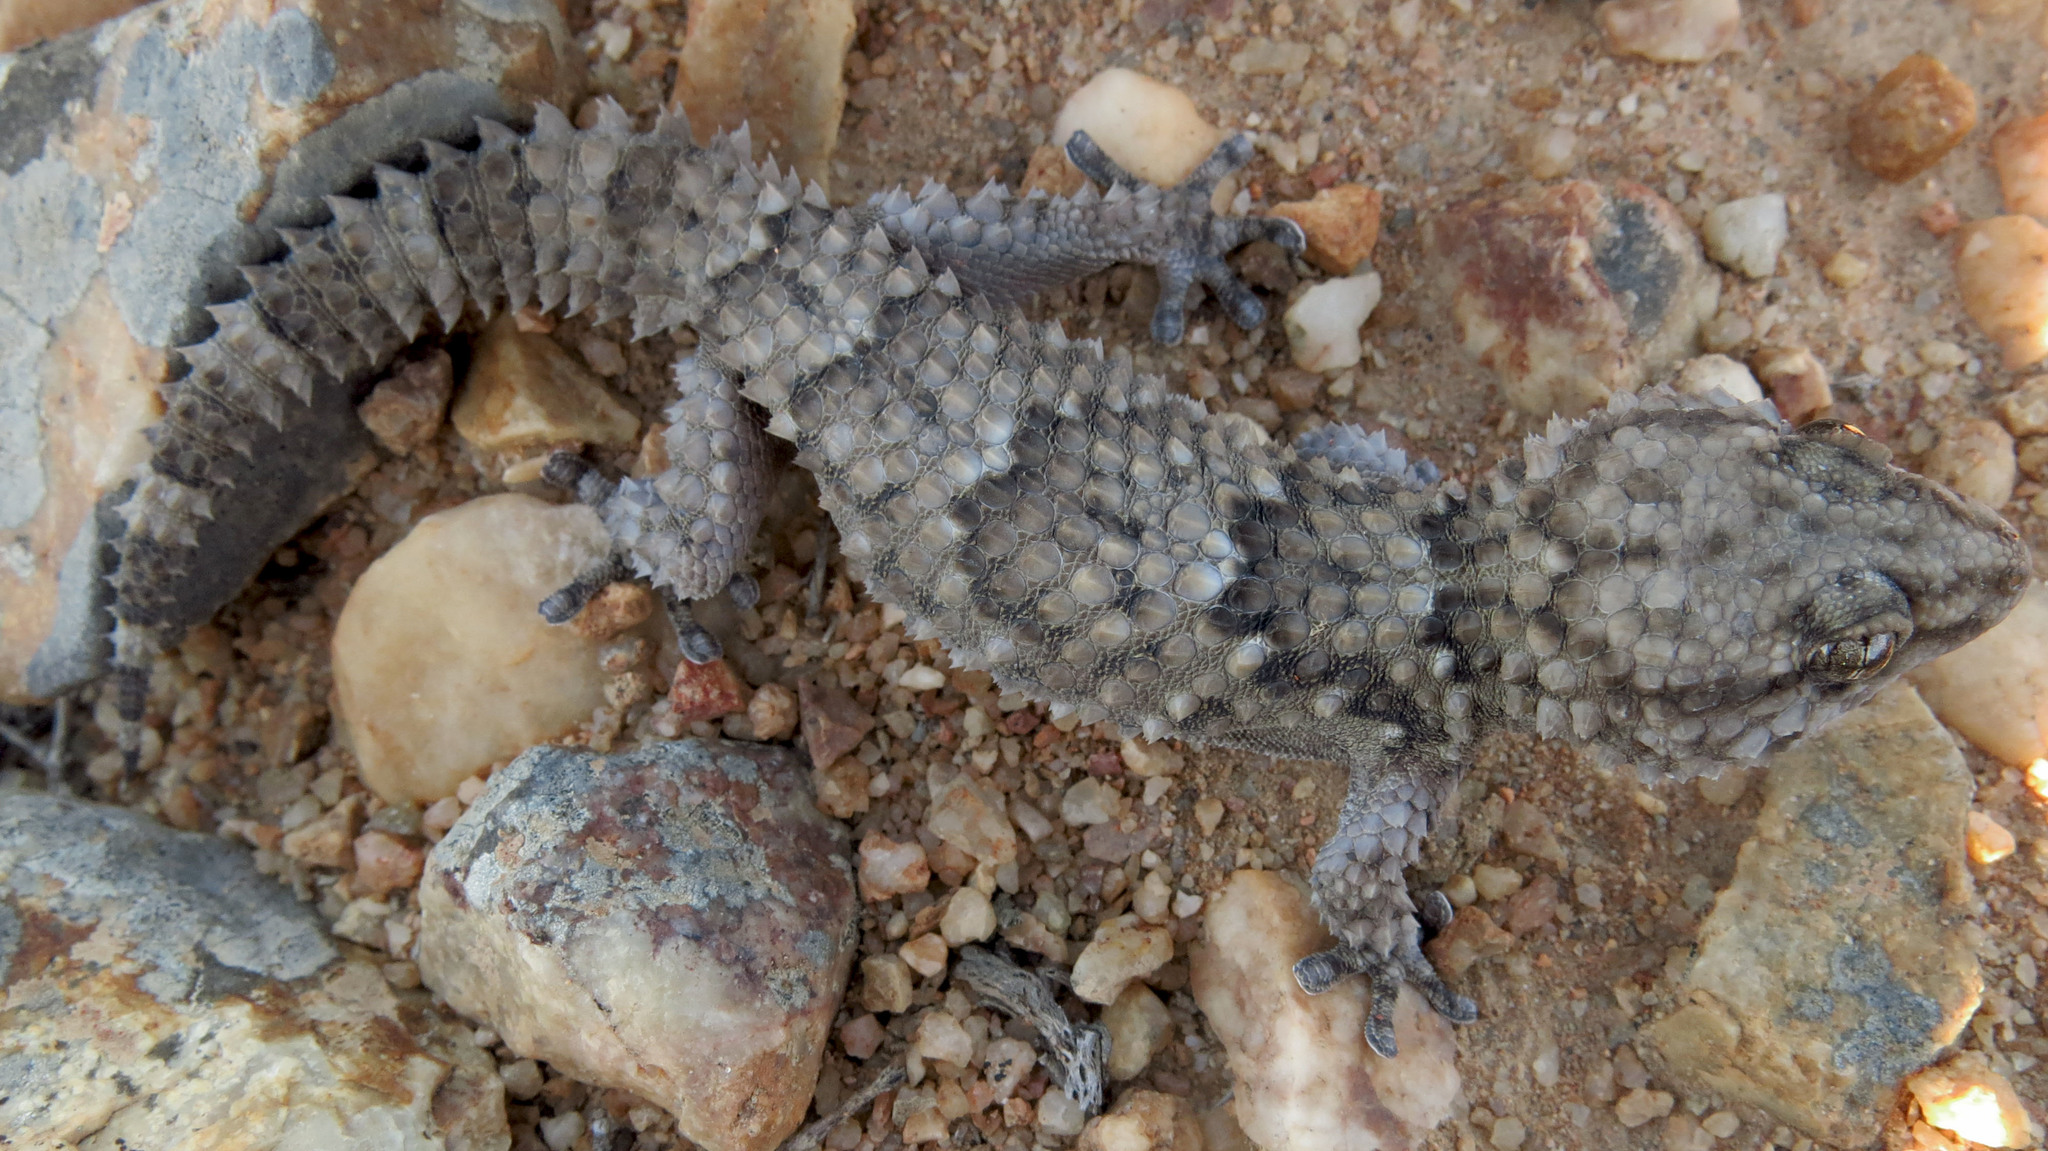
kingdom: Animalia
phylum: Chordata
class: Squamata
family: Gekkonidae
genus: Chondrodactylus
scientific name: Chondrodactylus bibronii
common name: Bibron's gecko
